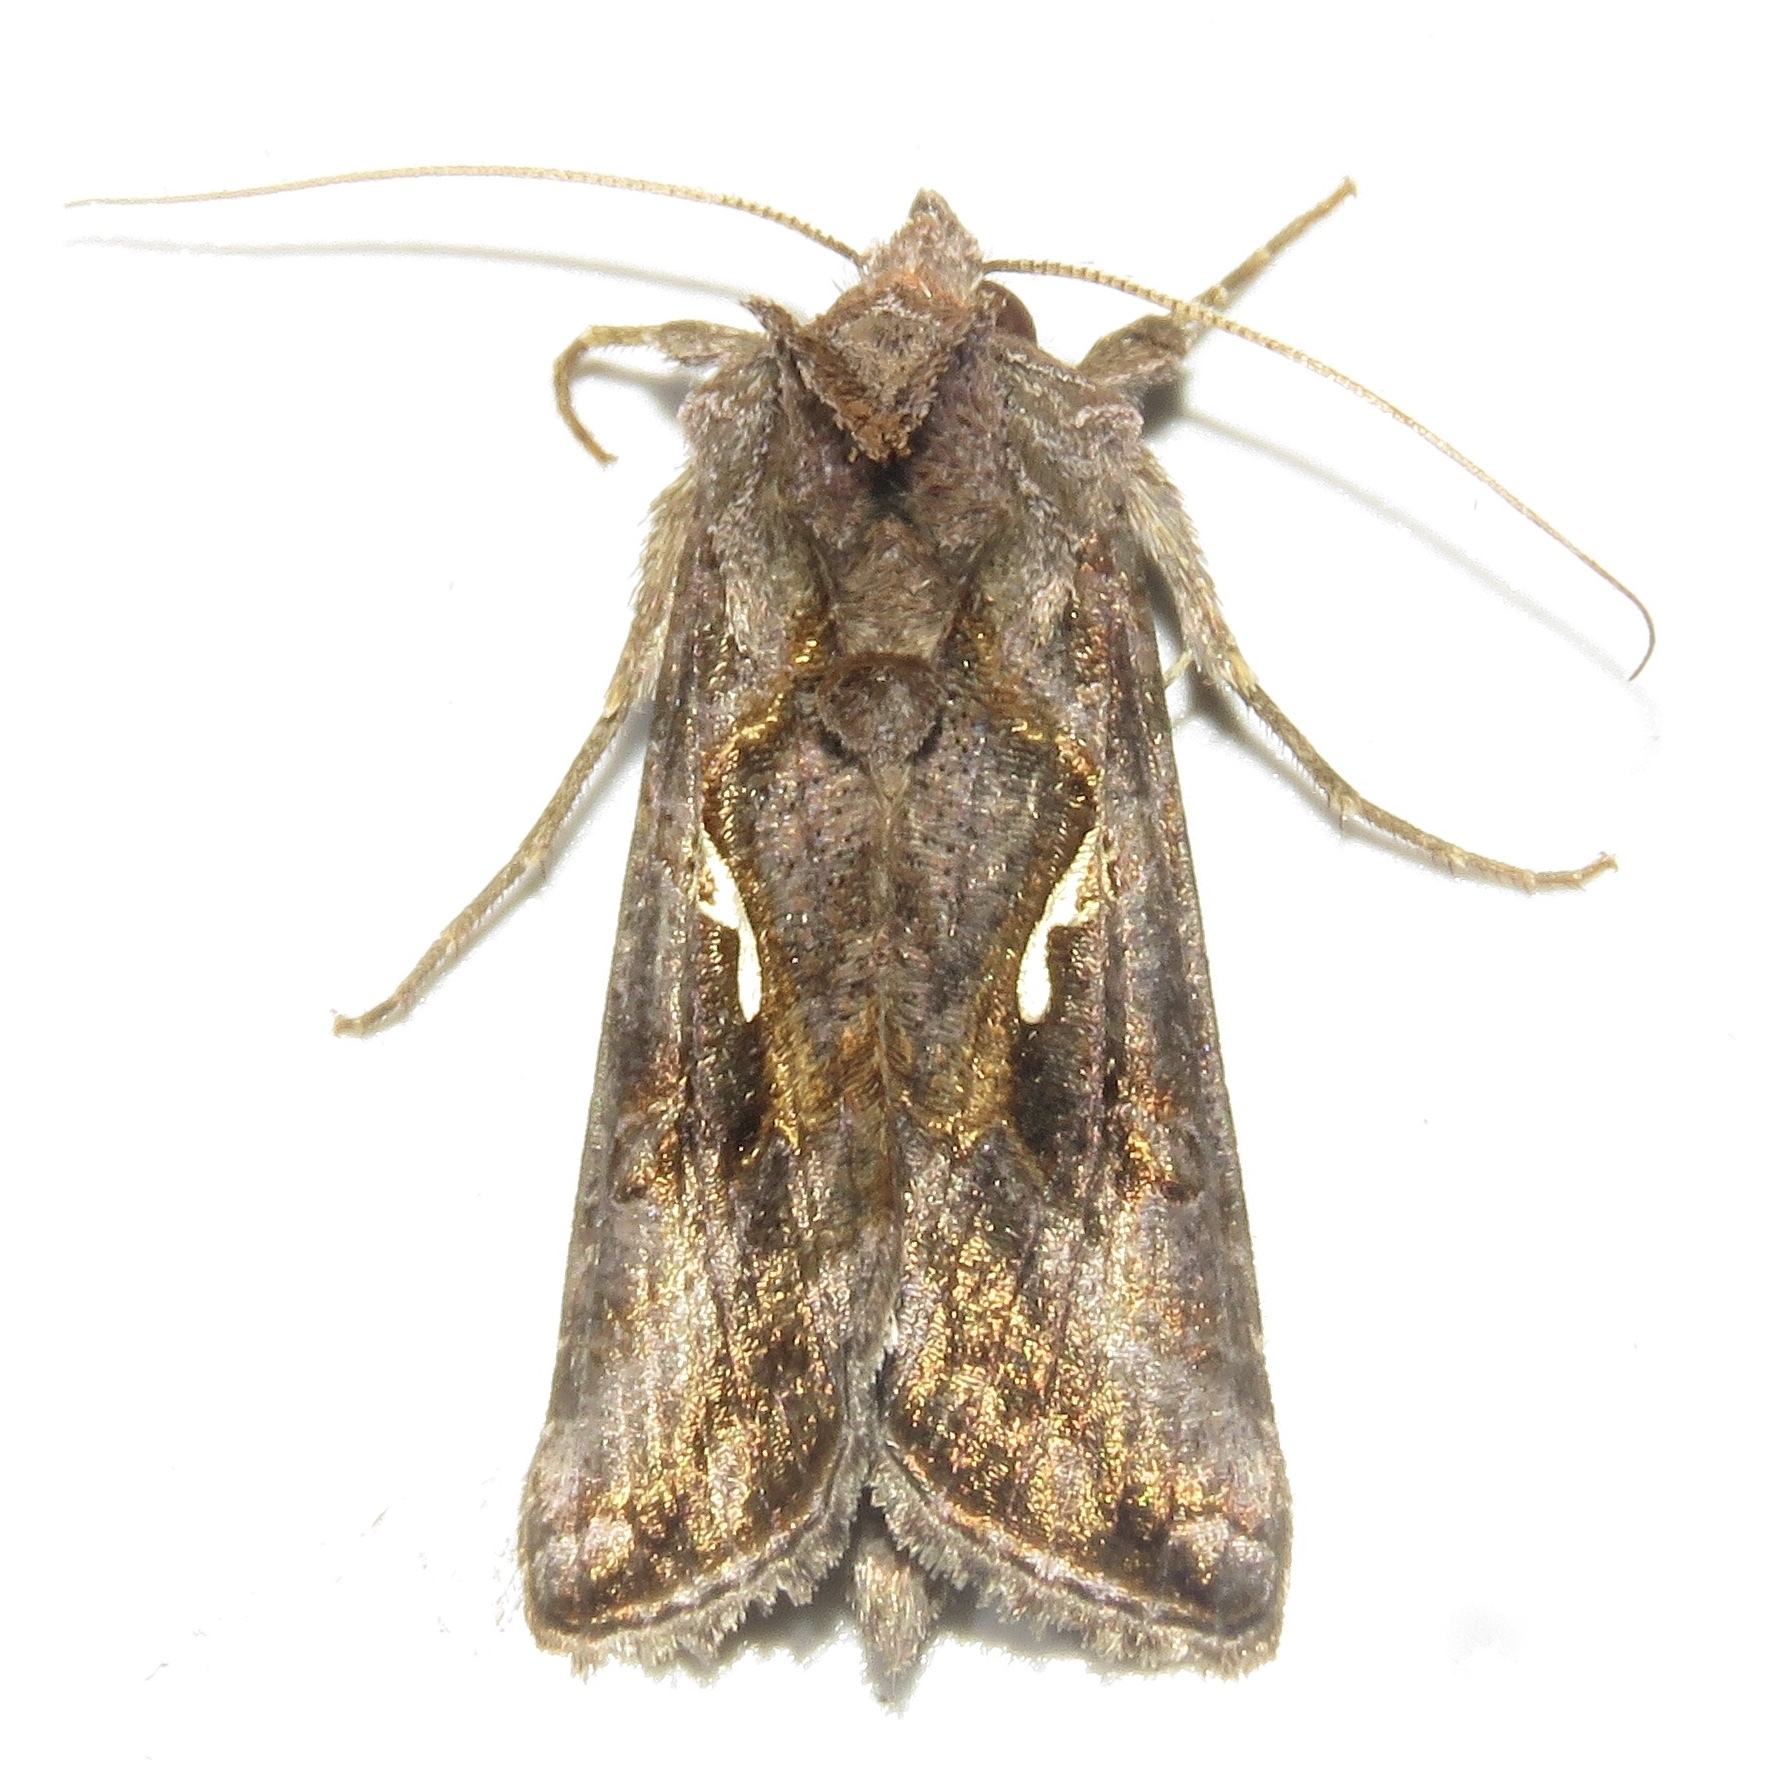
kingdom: Animalia
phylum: Arthropoda
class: Insecta
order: Lepidoptera
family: Noctuidae
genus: Autographa
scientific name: Autographa precationis
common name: Common looper moth
